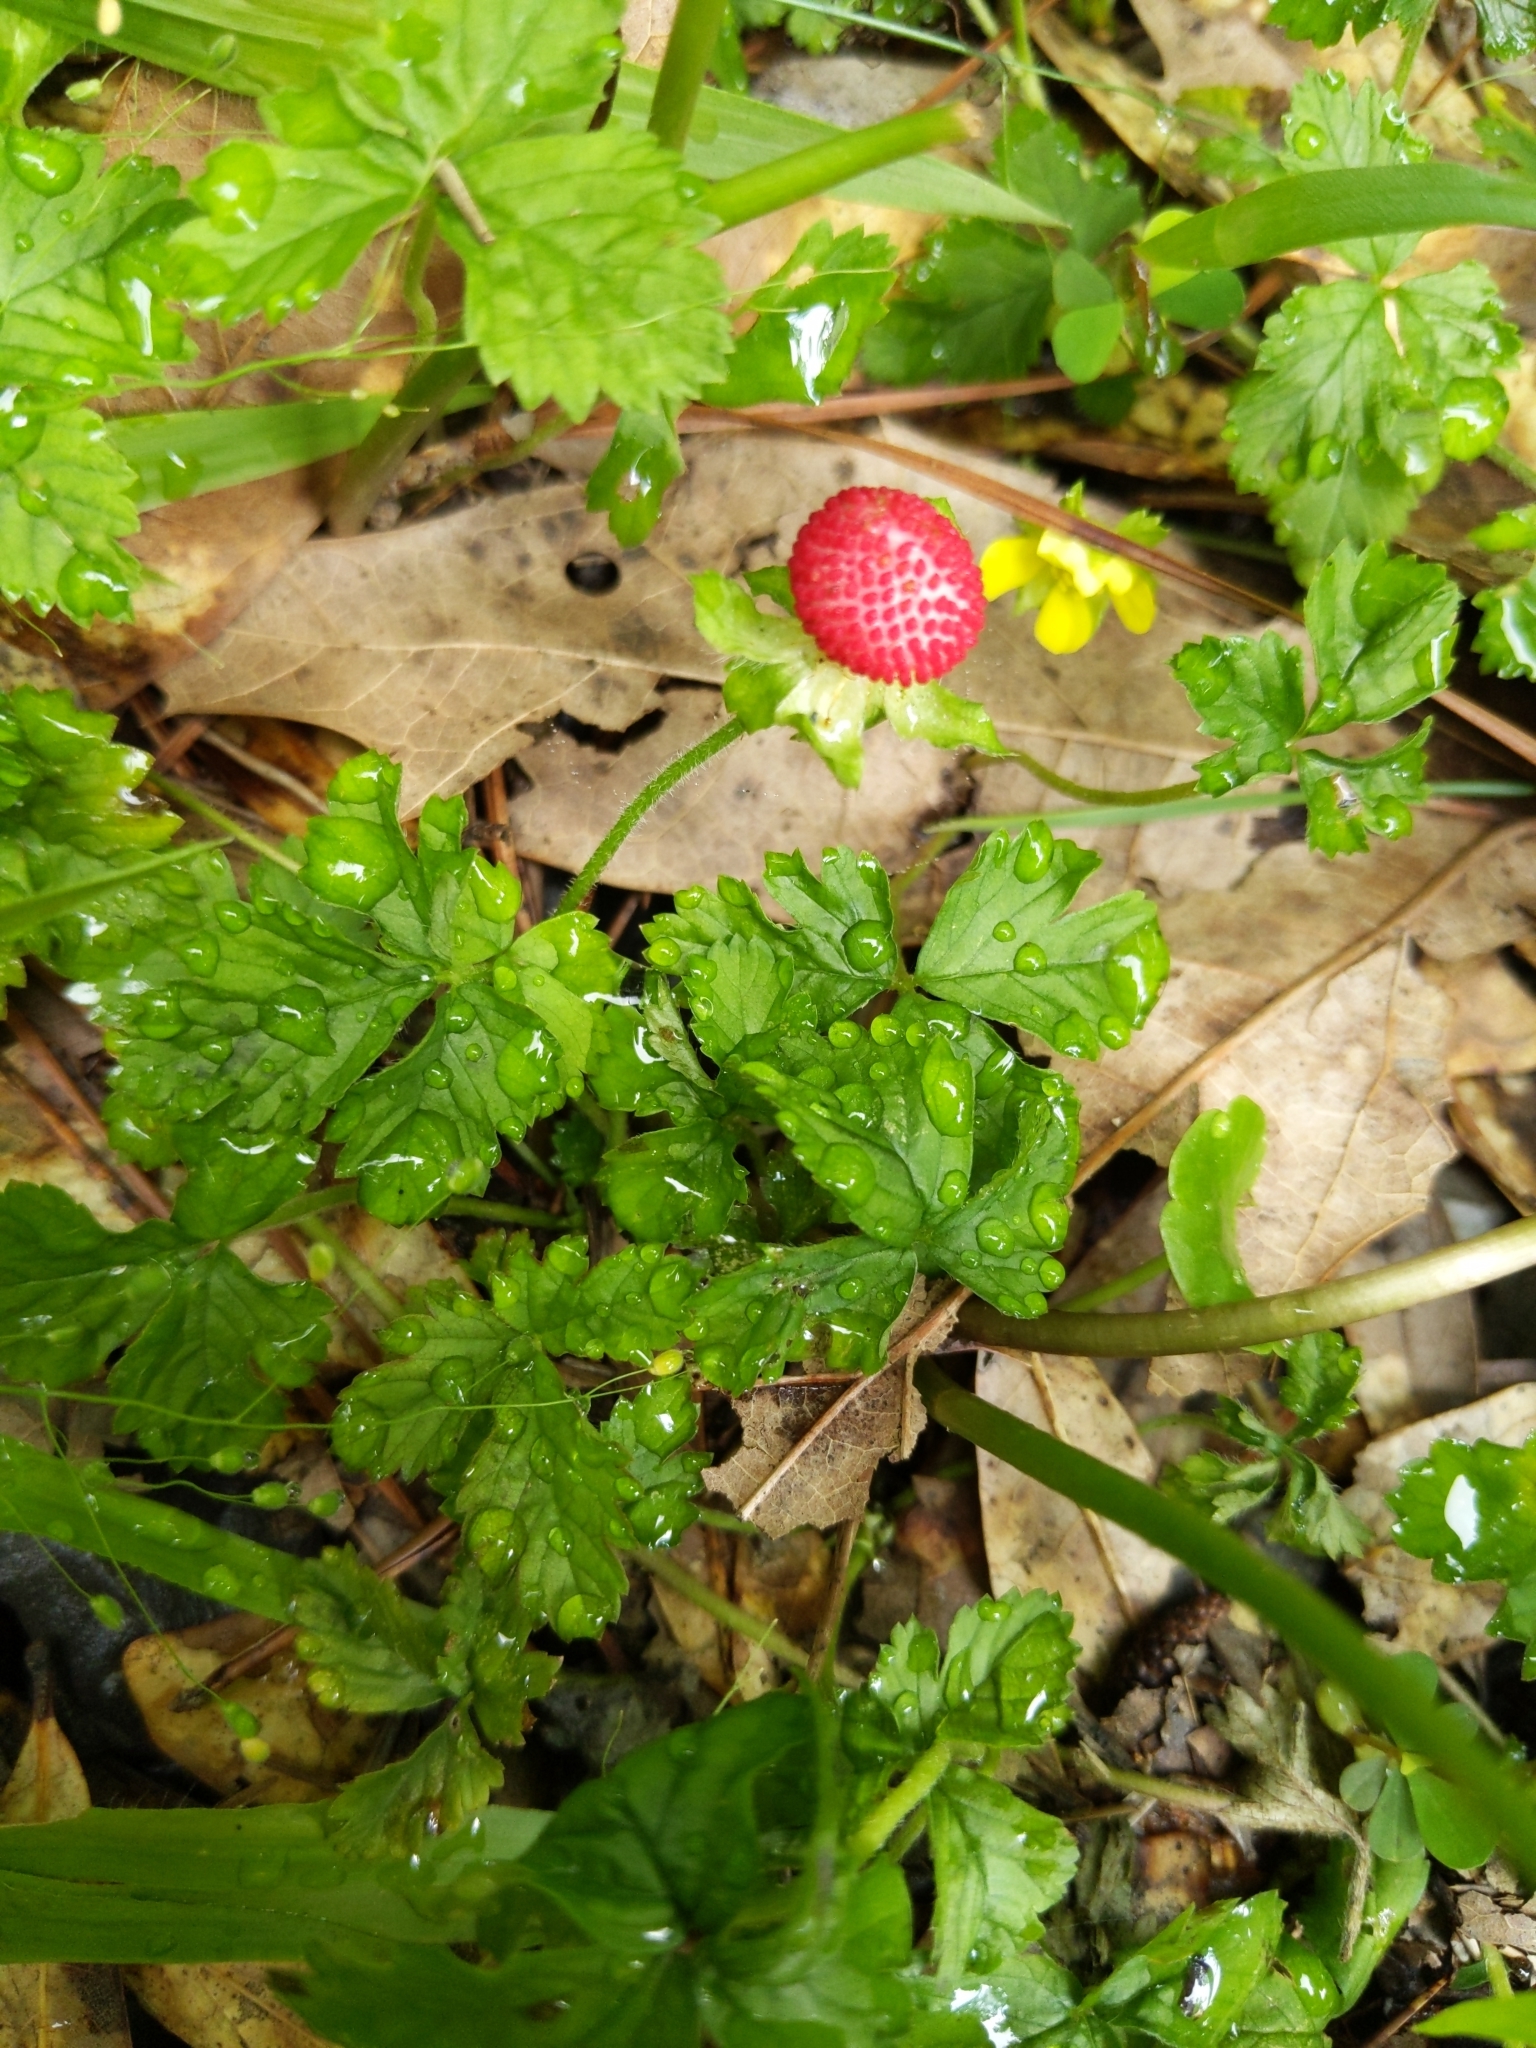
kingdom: Plantae
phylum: Tracheophyta
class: Magnoliopsida
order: Rosales
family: Rosaceae
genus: Potentilla
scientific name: Potentilla indica
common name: Yellow-flowered strawberry
